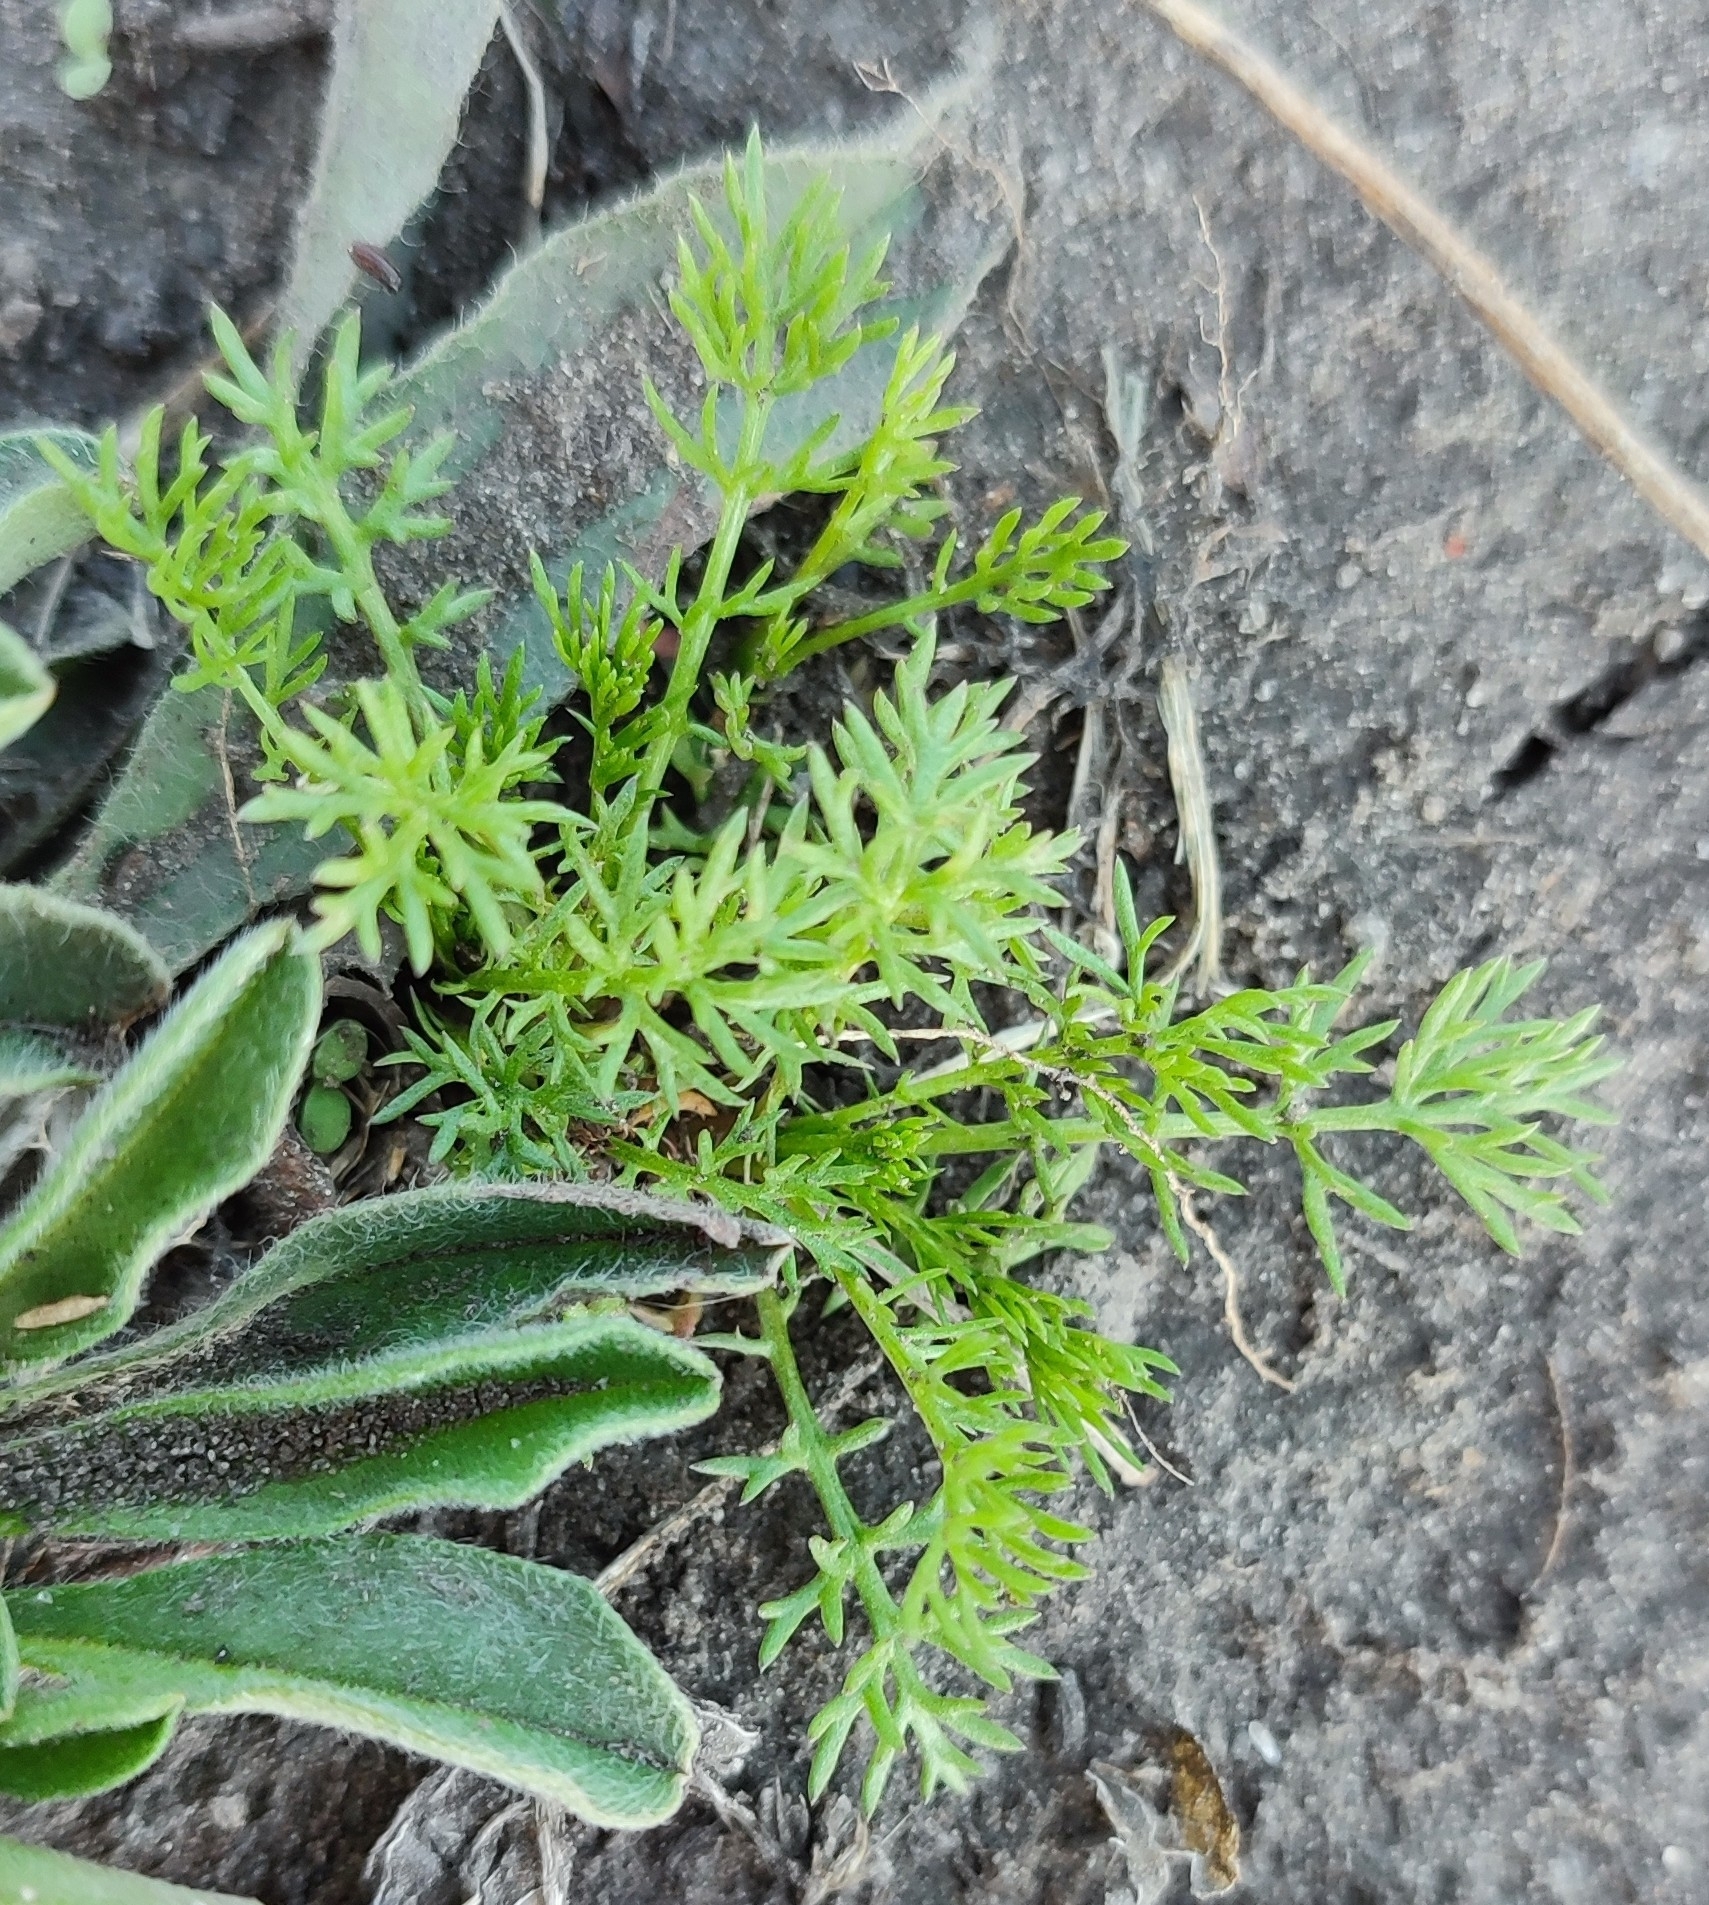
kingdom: Plantae
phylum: Tracheophyta
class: Magnoliopsida
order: Asterales
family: Asteraceae
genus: Tripleurospermum
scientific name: Tripleurospermum inodorum
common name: Scentless mayweed
